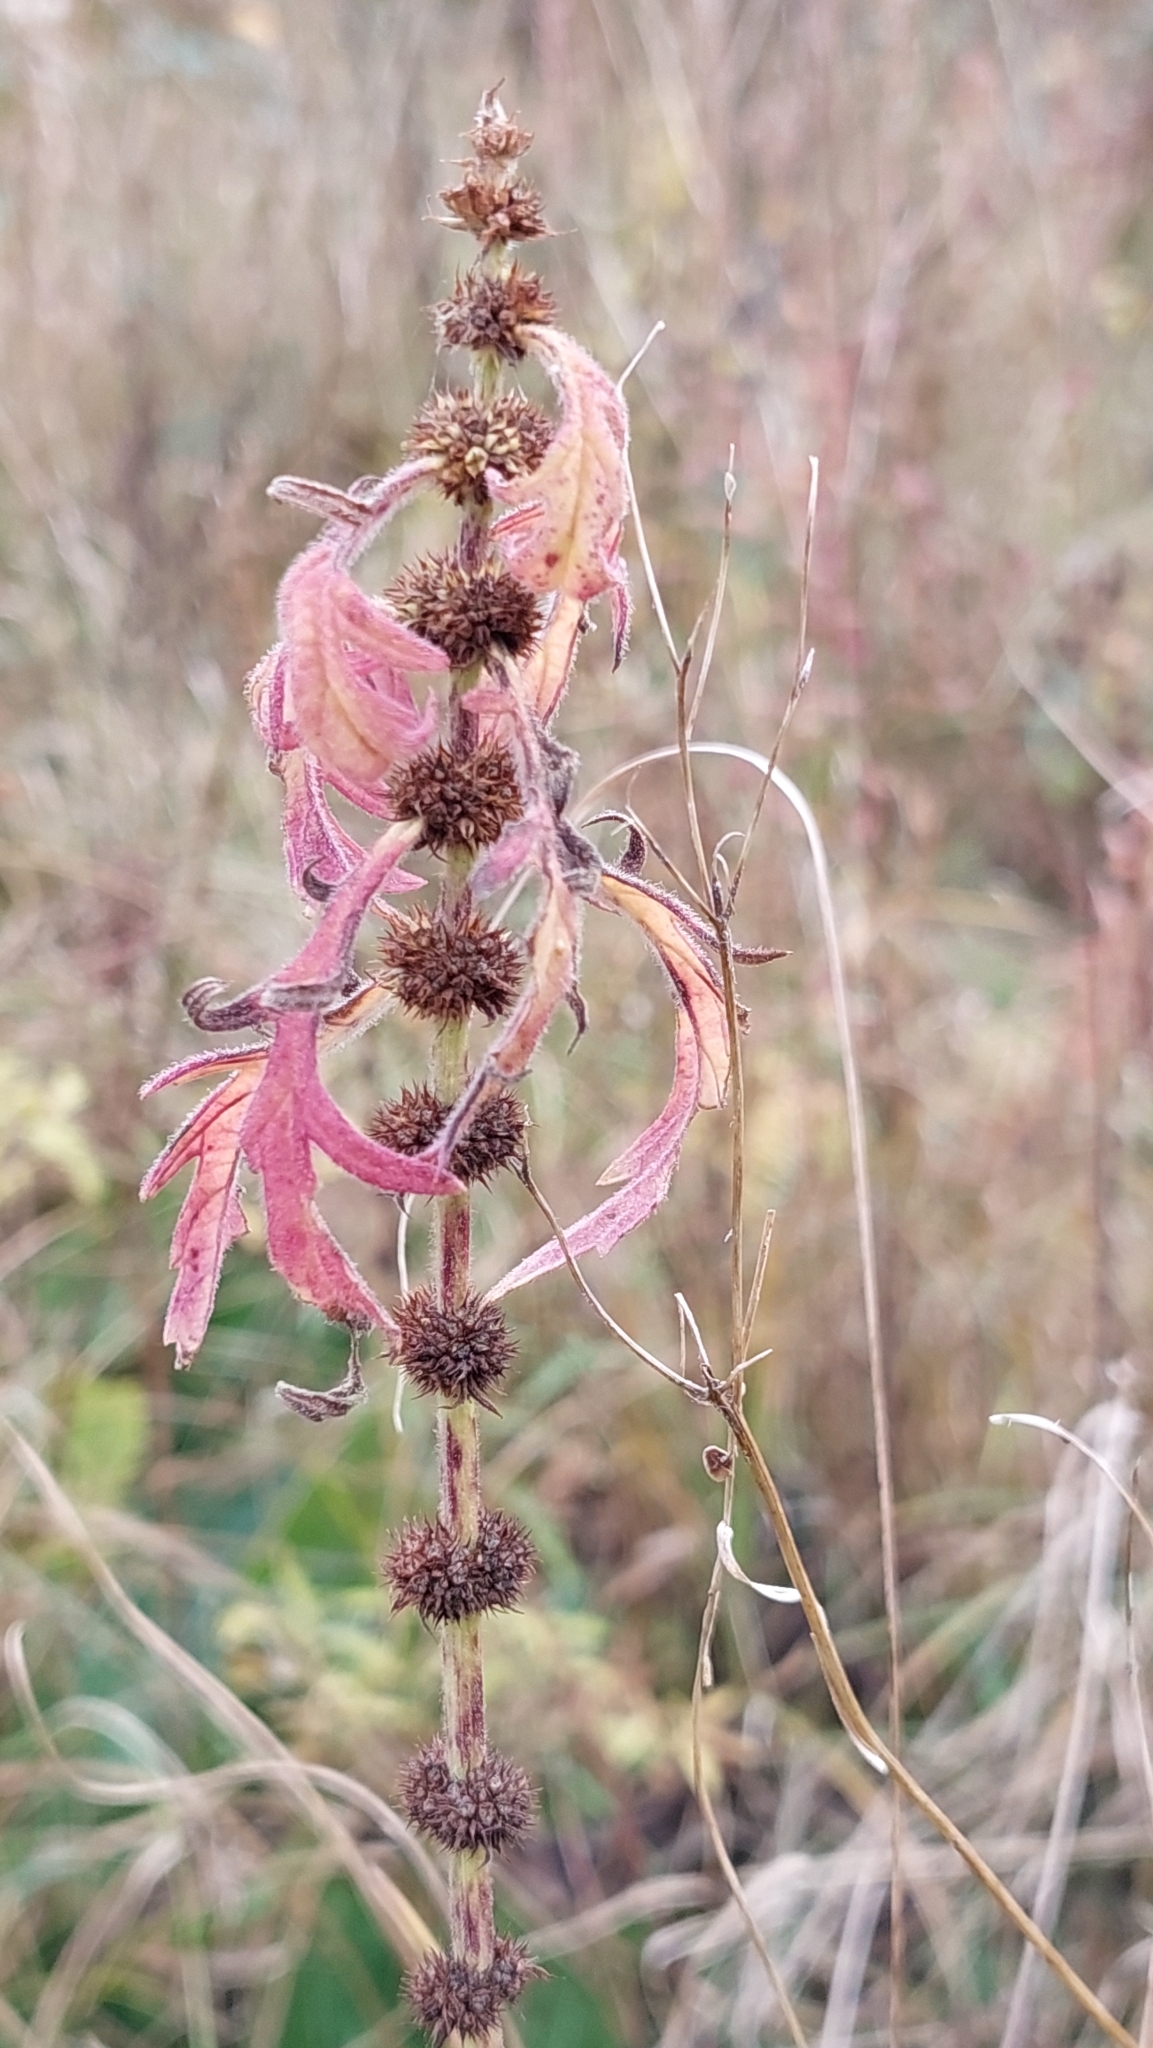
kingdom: Plantae
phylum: Tracheophyta
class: Magnoliopsida
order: Lamiales
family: Lamiaceae
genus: Lycopus
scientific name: Lycopus exaltatus
